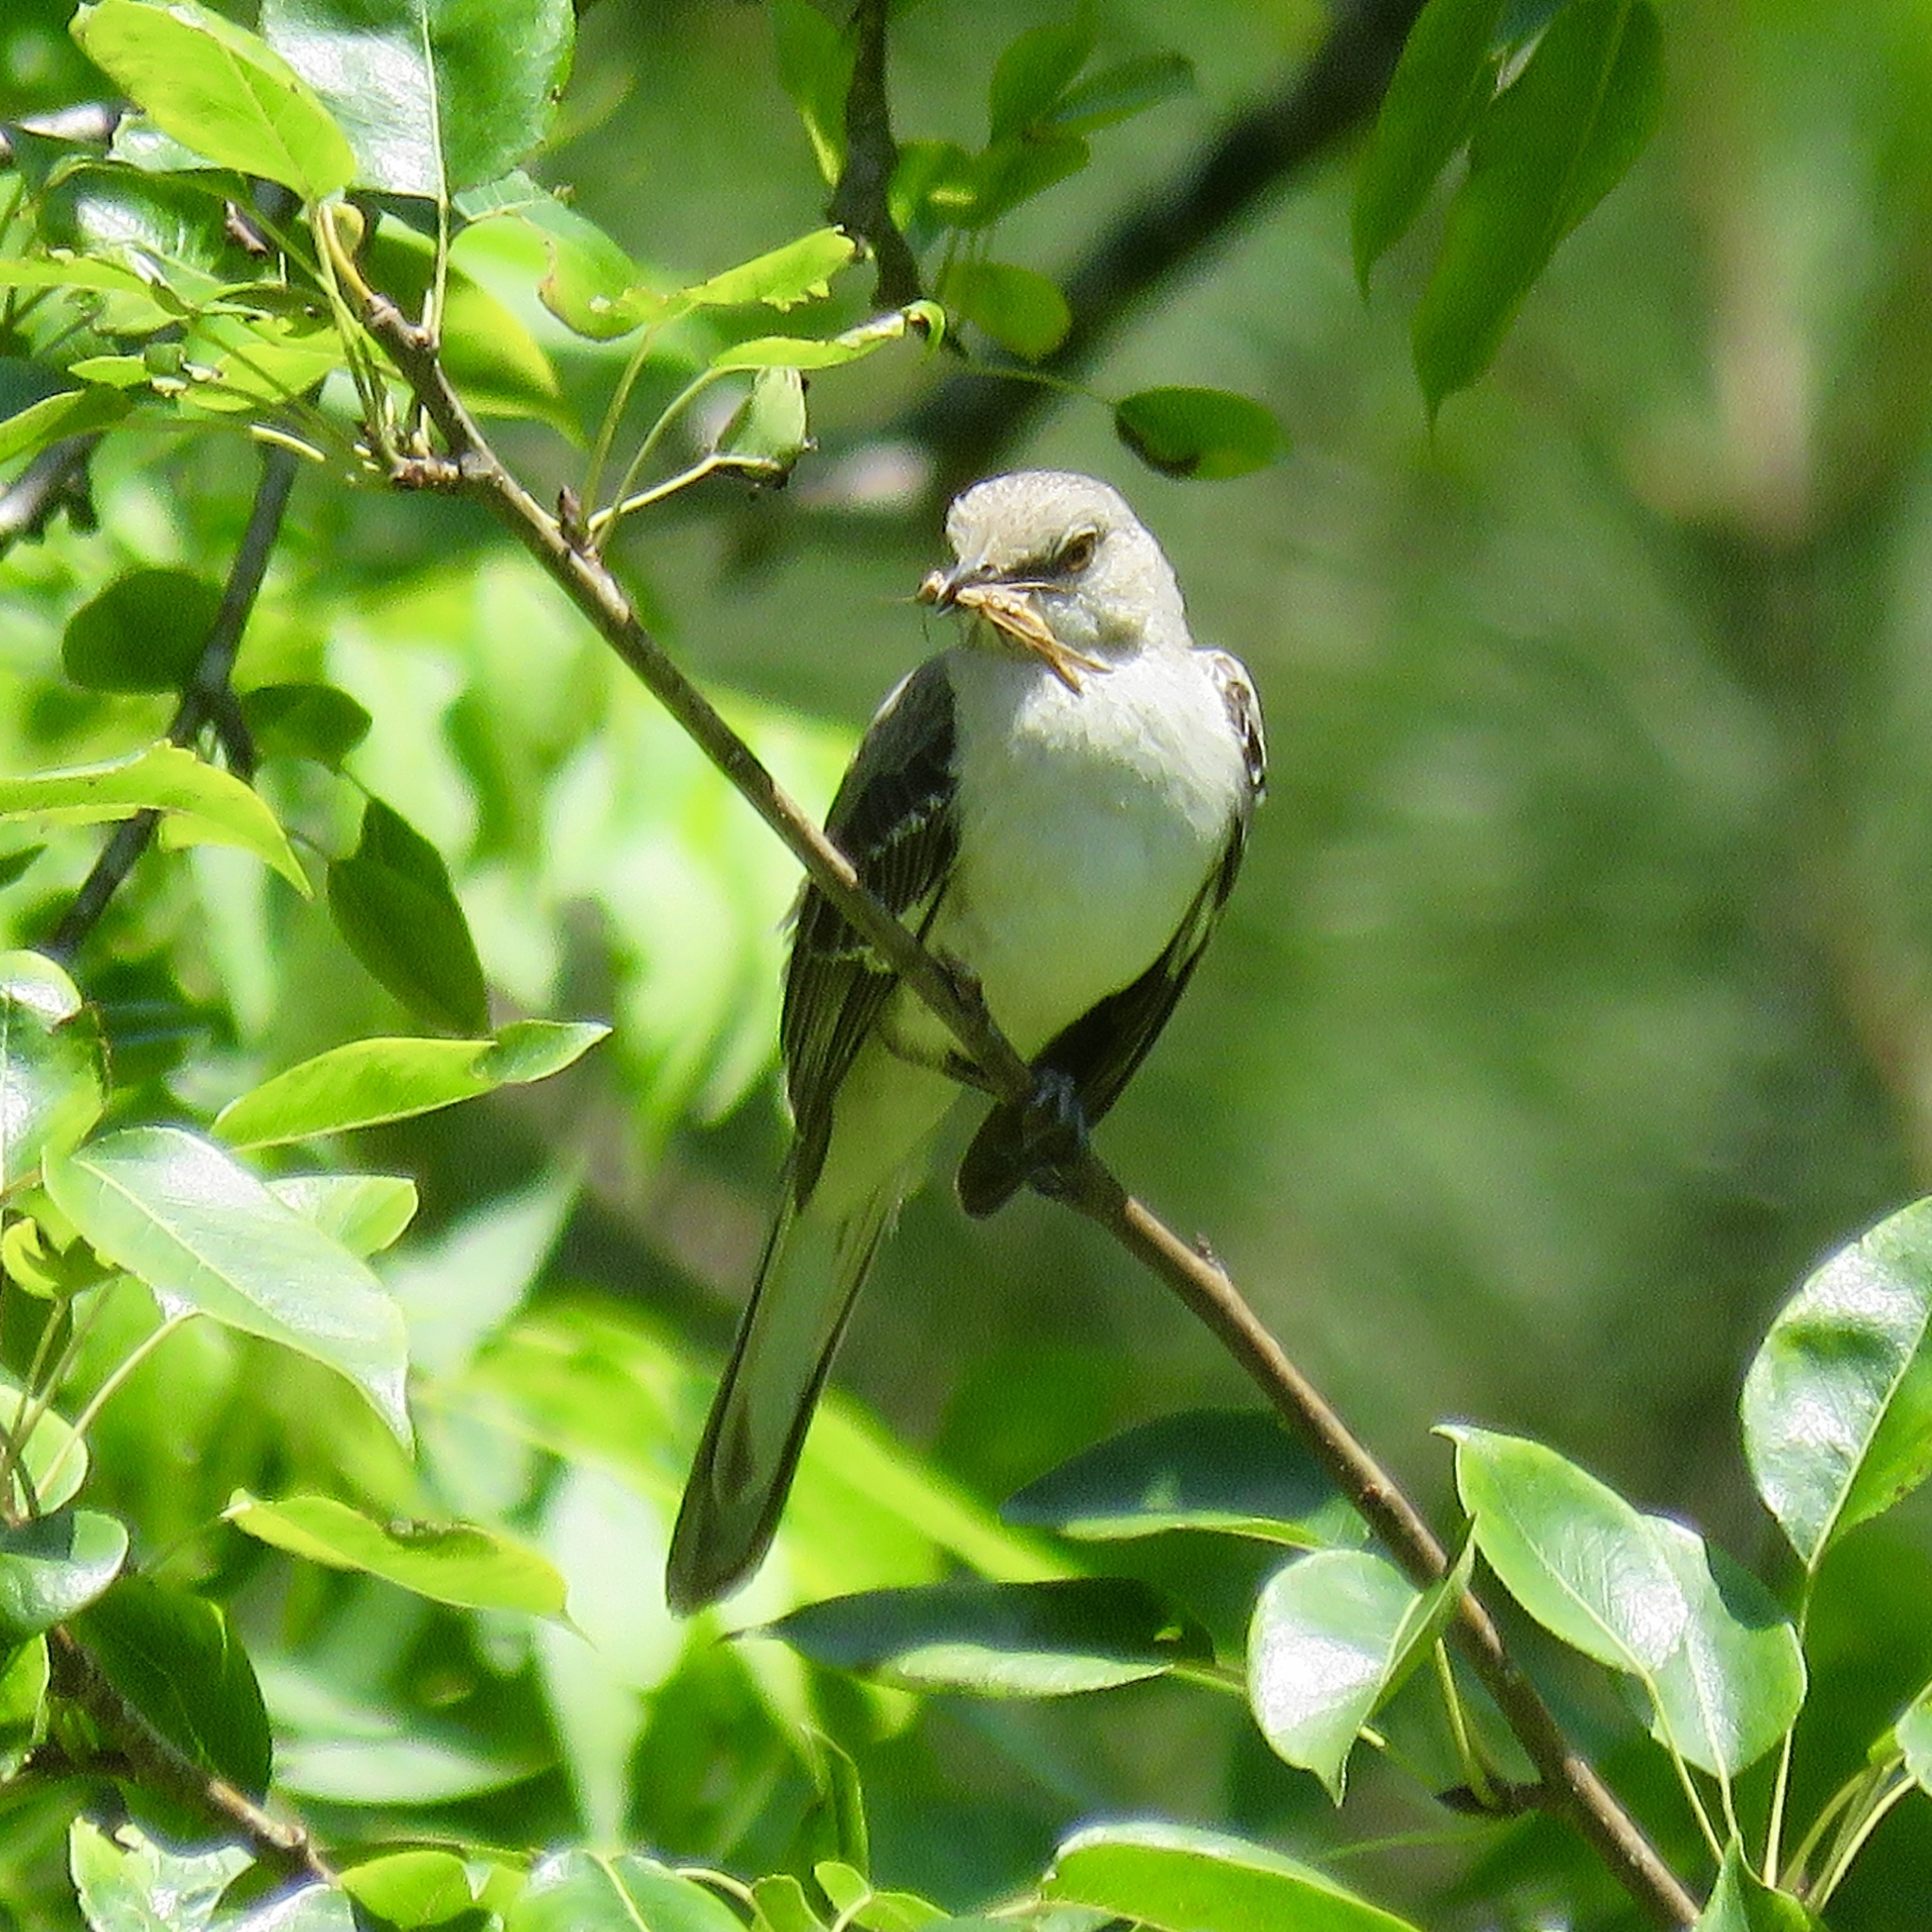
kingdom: Animalia
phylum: Chordata
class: Aves
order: Passeriformes
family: Mimidae
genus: Mimus
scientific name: Mimus polyglottos
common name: Northern mockingbird
